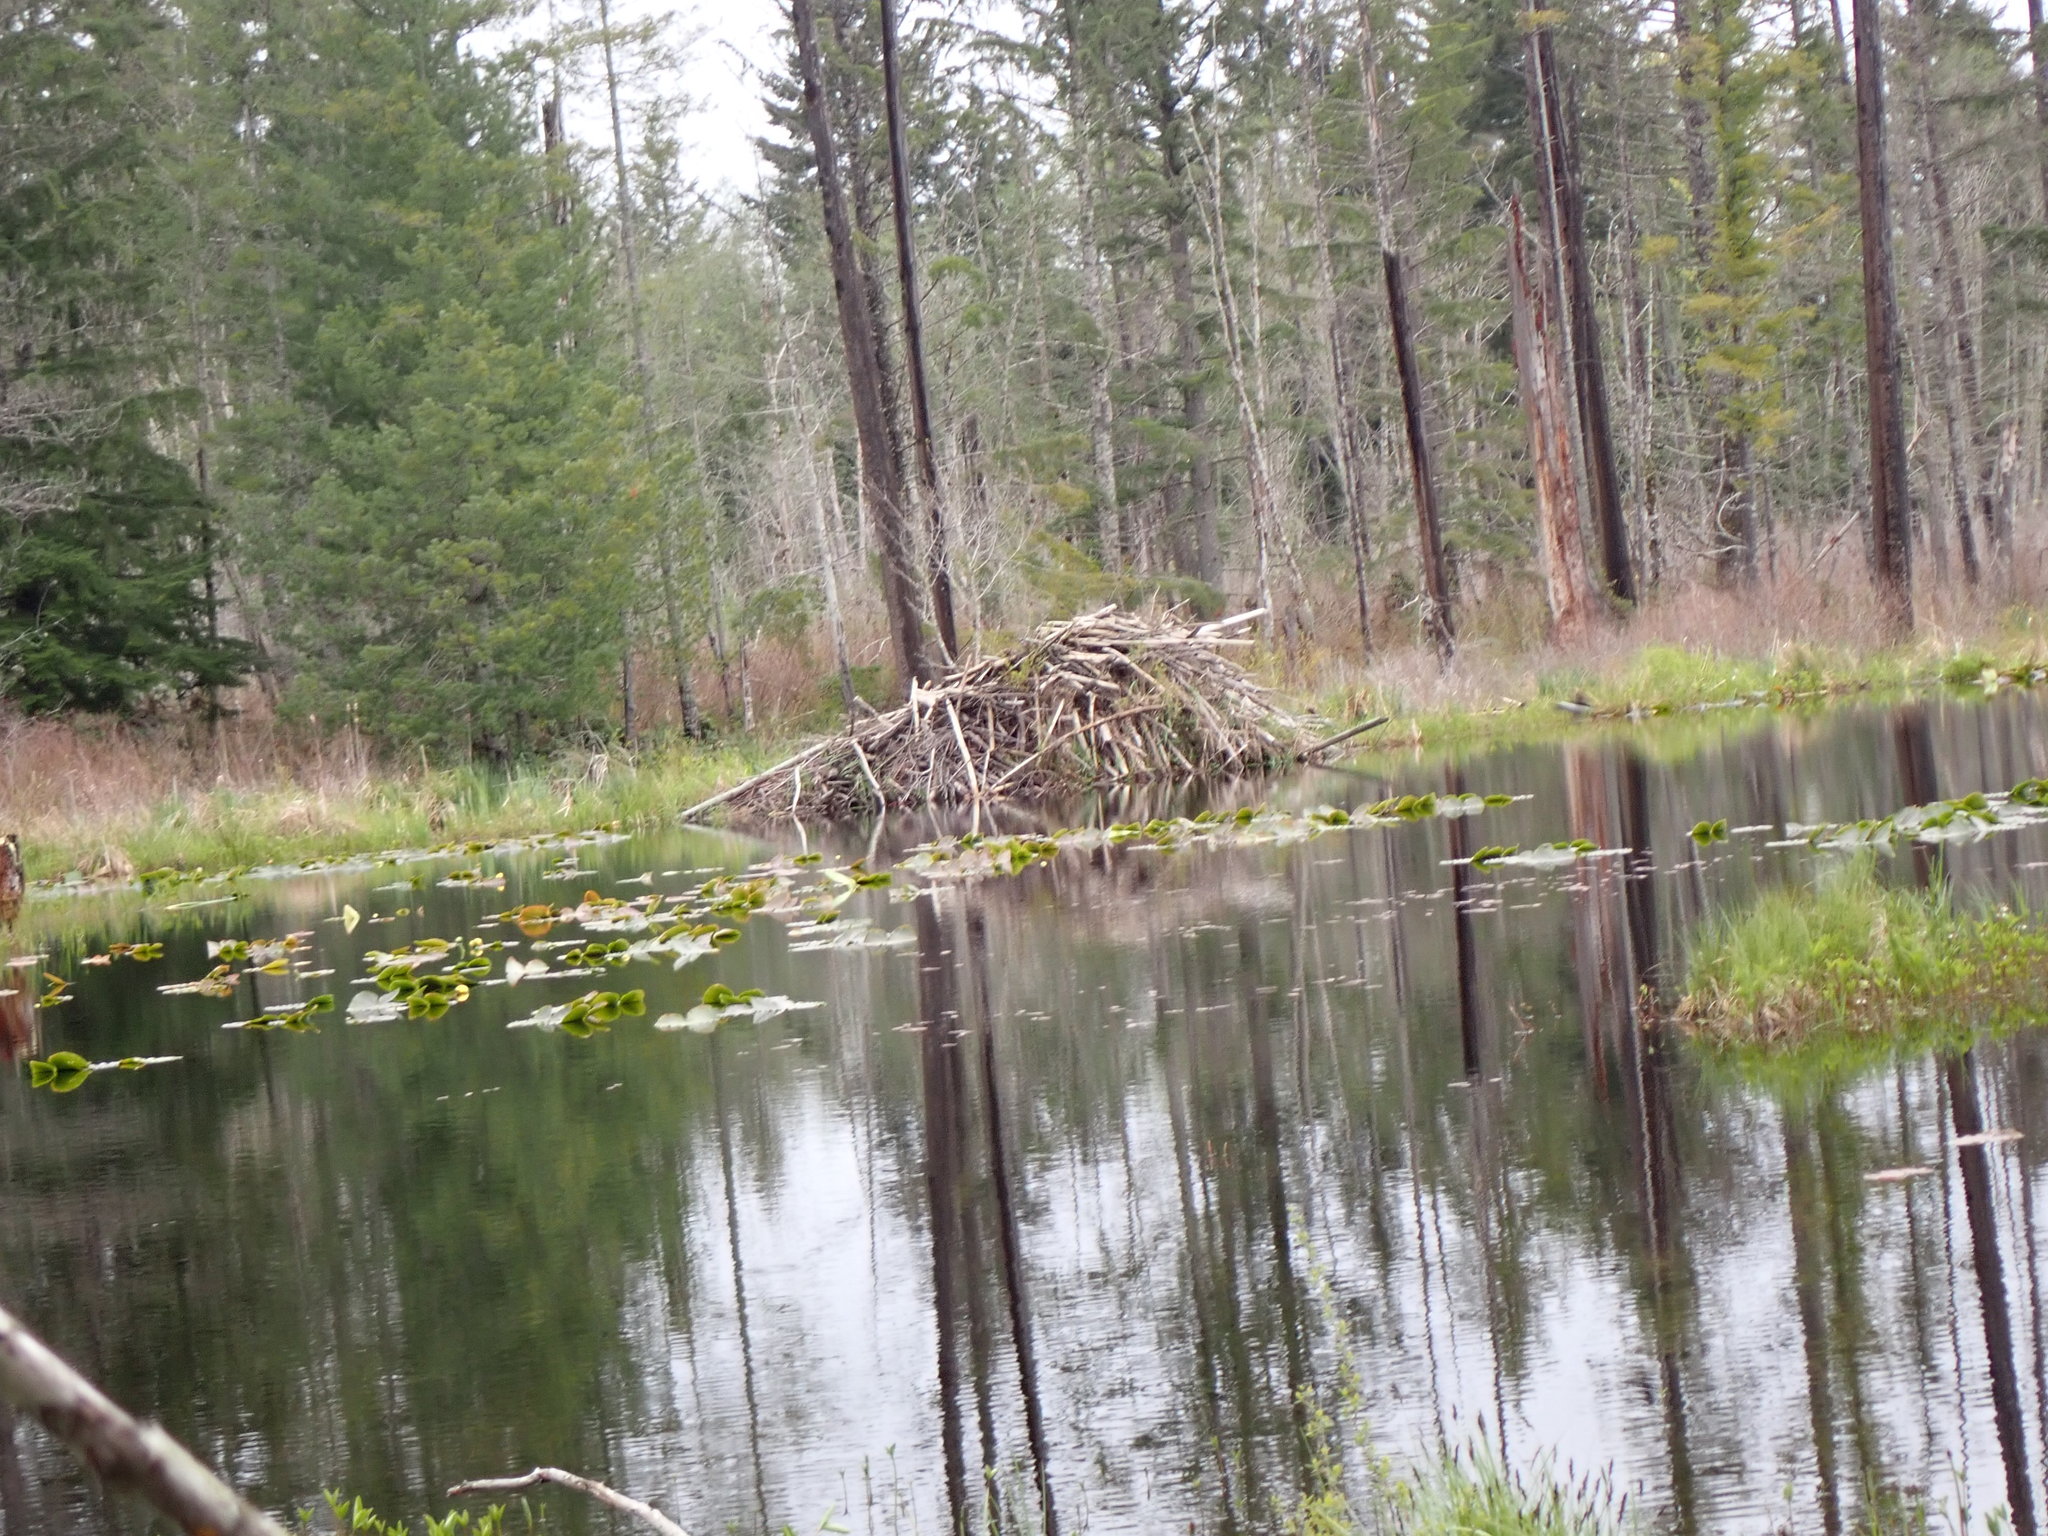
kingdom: Animalia
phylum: Chordata
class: Mammalia
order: Rodentia
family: Castoridae
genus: Castor
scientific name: Castor canadensis
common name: American beaver
